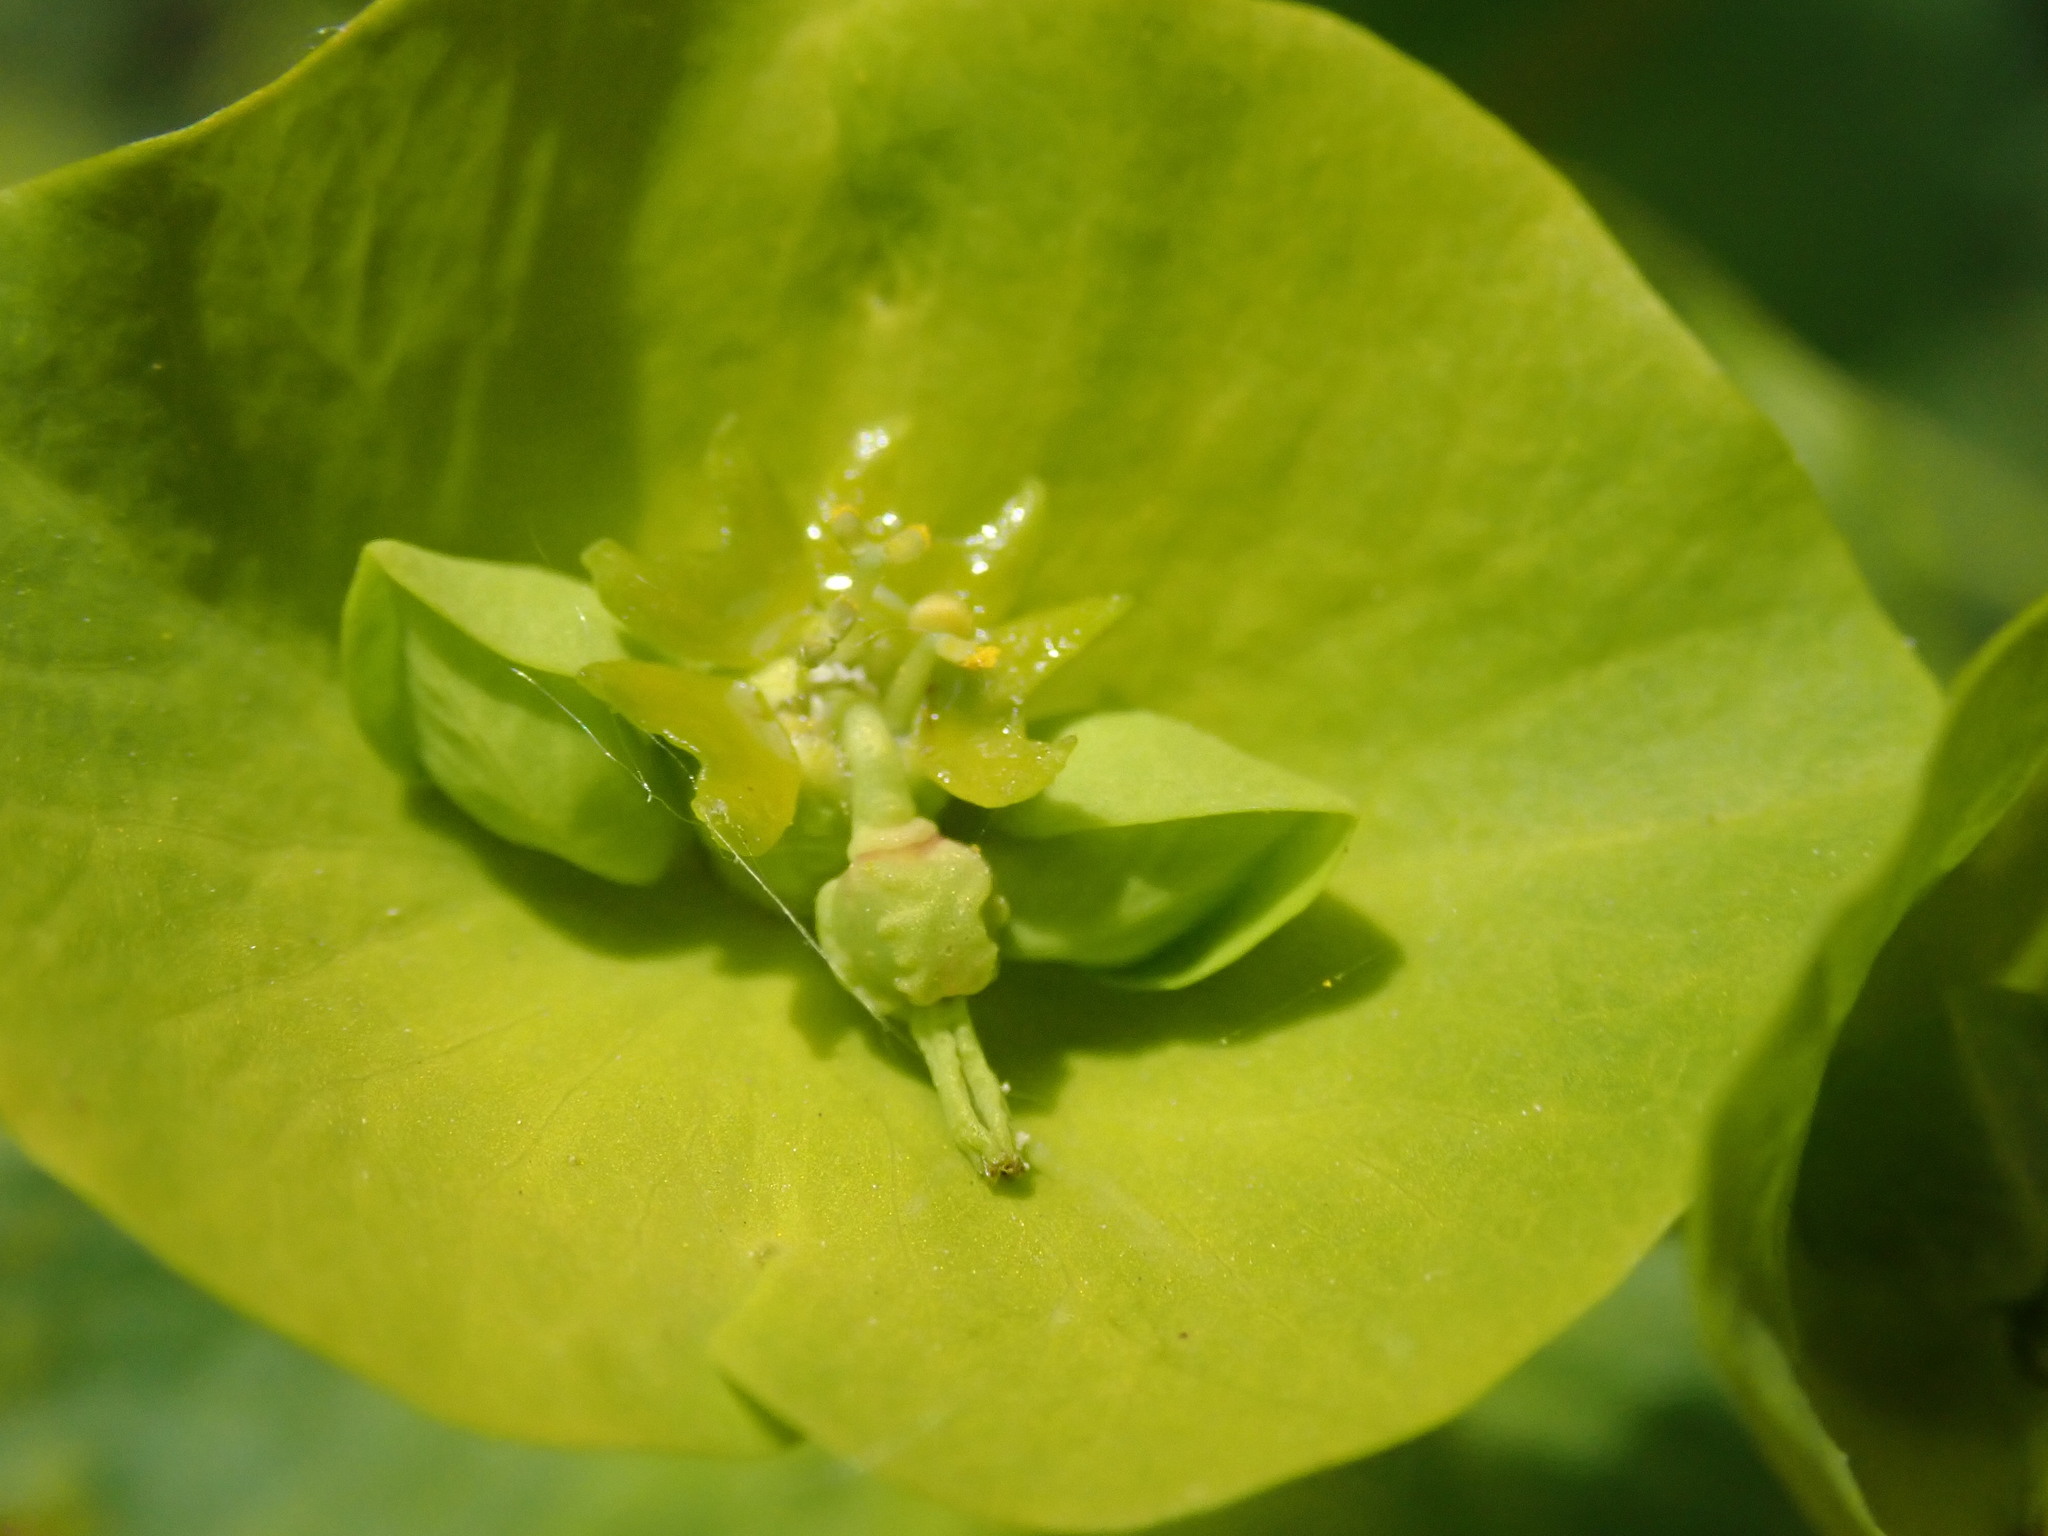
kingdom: Plantae
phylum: Tracheophyta
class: Magnoliopsida
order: Malpighiales
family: Euphorbiaceae
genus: Euphorbia
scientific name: Euphorbia amygdaloides
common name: Wood spurge
